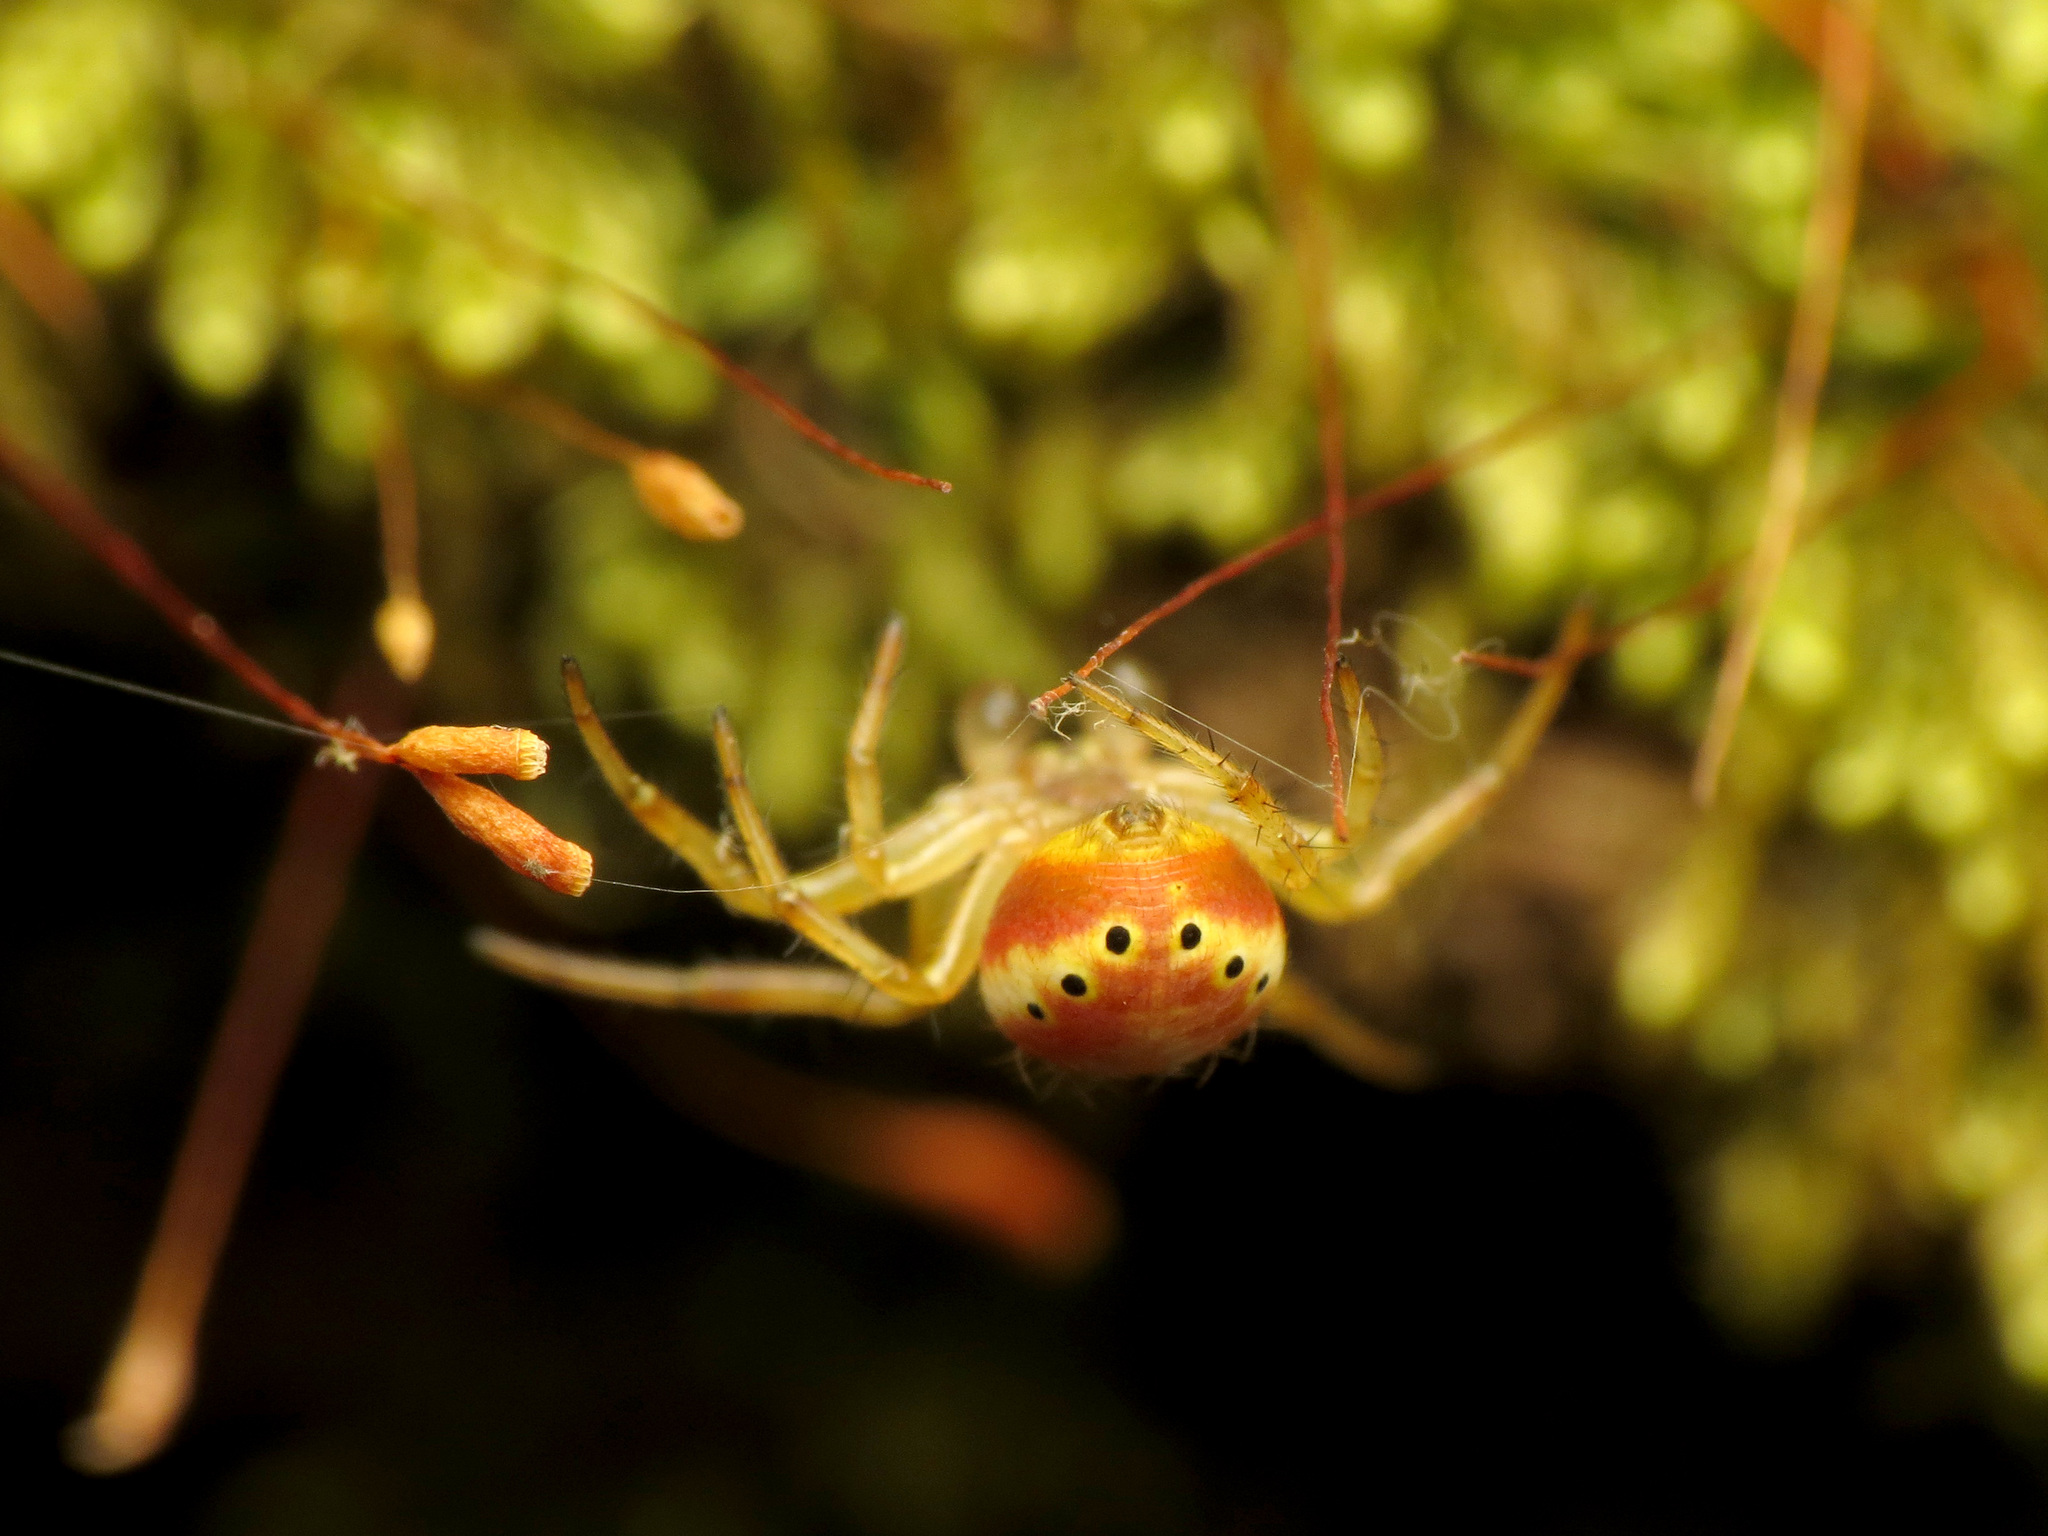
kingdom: Animalia
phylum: Arthropoda
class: Arachnida
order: Araneae
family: Araneidae
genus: Araniella
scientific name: Araniella displicata
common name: Sixspotted orb weaver
